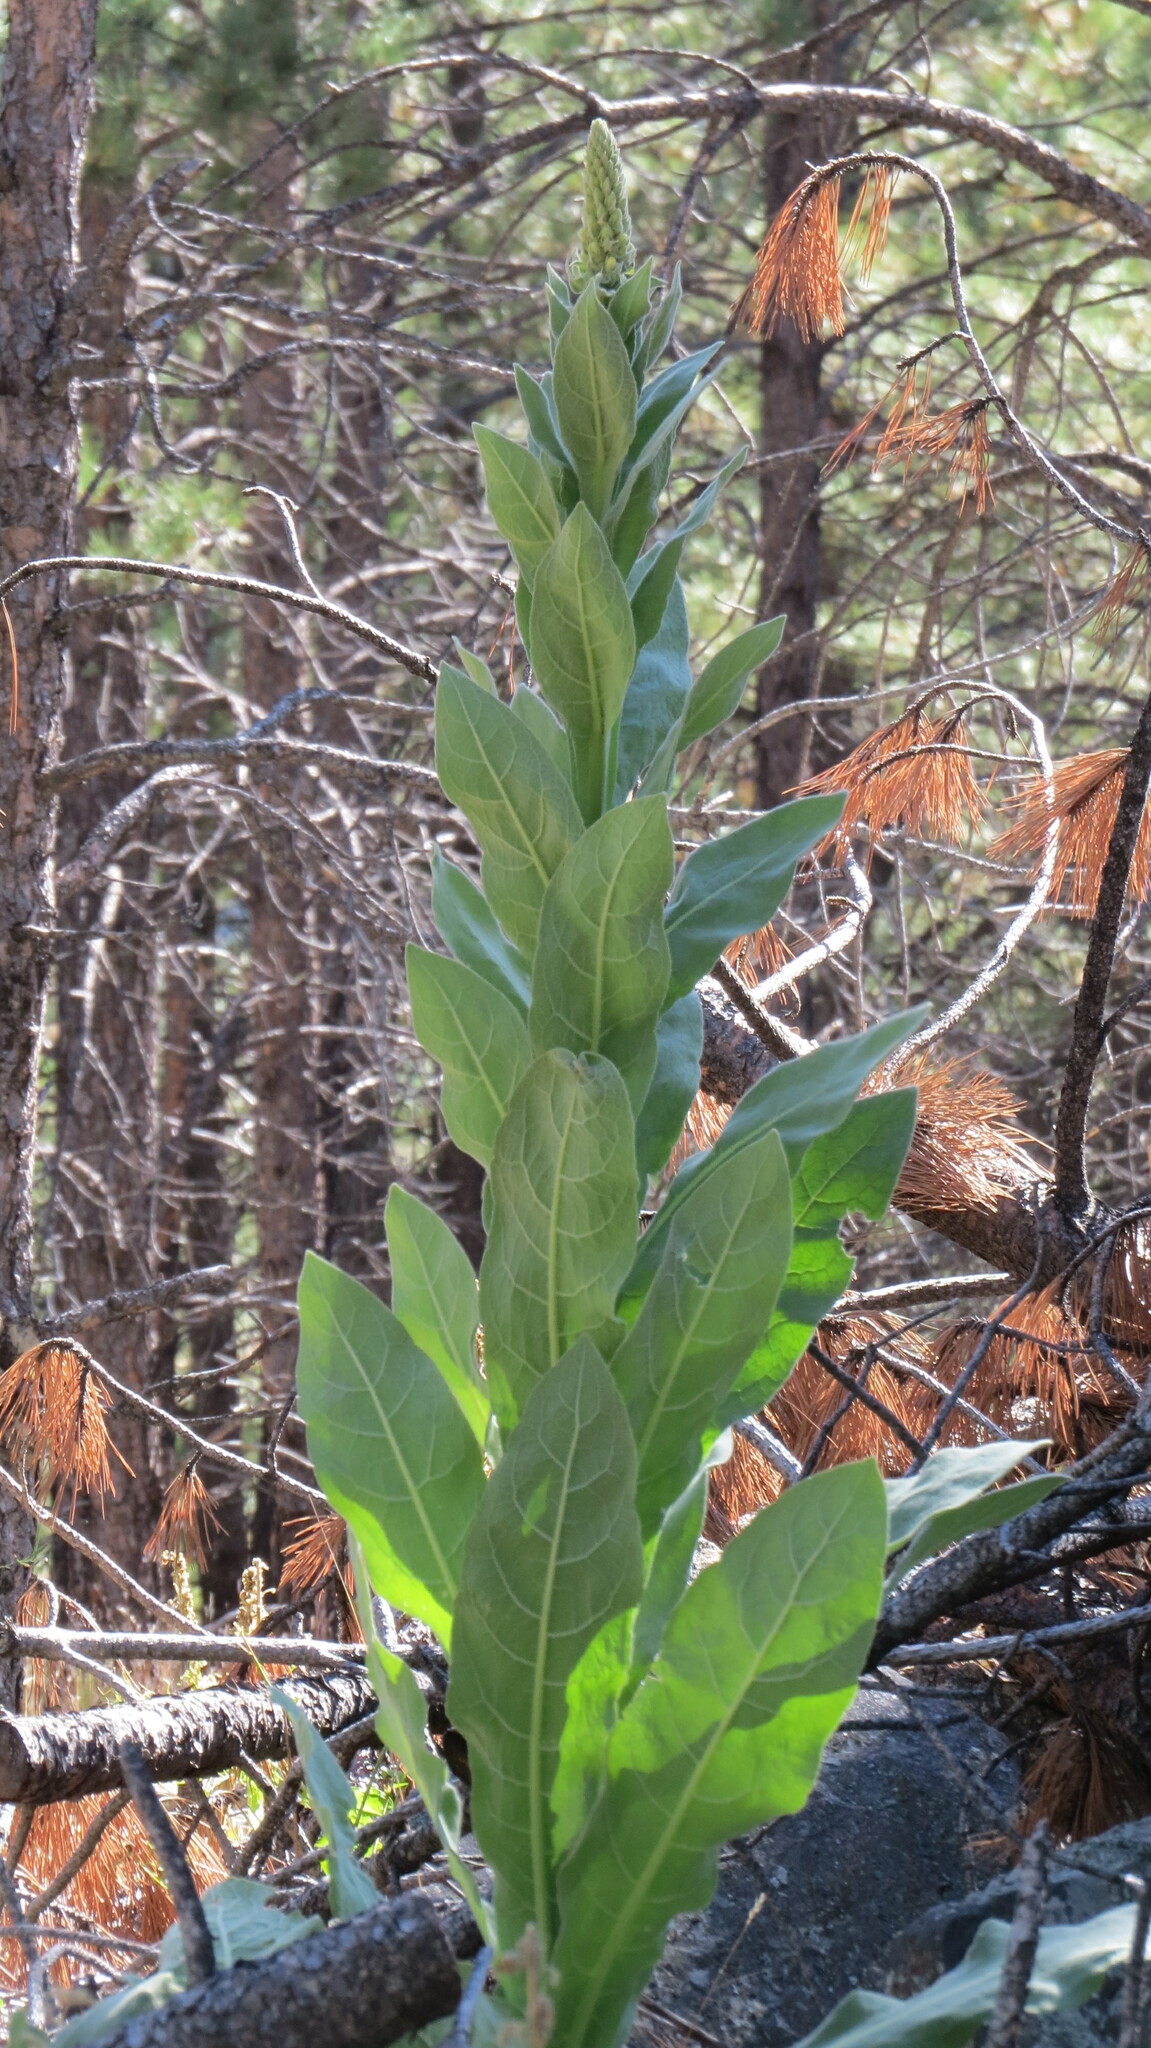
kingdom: Plantae
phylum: Tracheophyta
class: Magnoliopsida
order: Lamiales
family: Scrophulariaceae
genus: Verbascum
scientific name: Verbascum thapsus
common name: Common mullein
